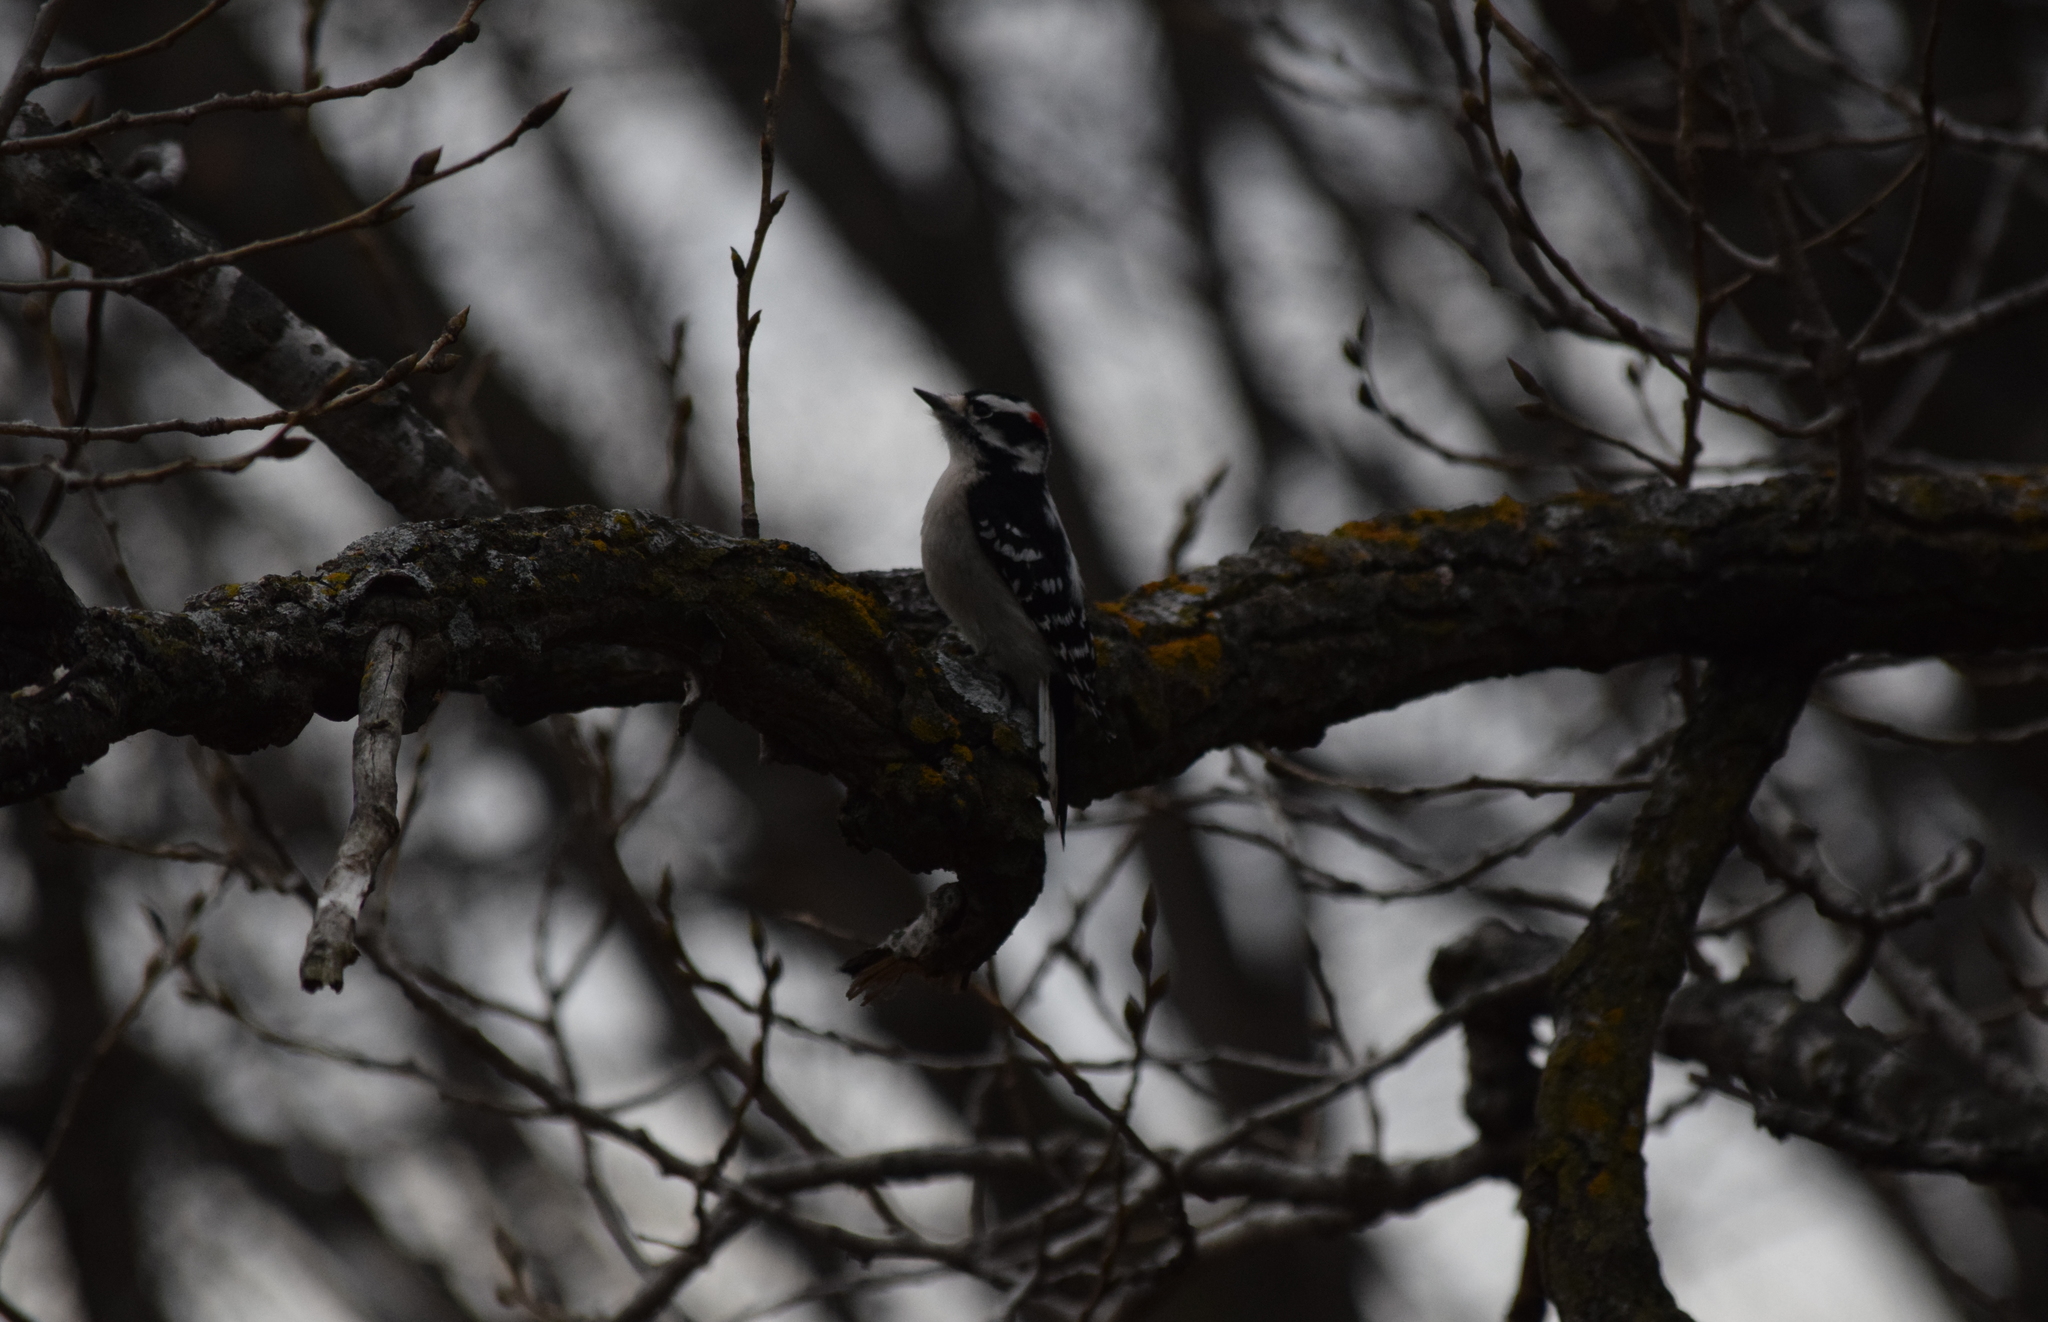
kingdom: Animalia
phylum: Chordata
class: Aves
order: Piciformes
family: Picidae
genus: Dryobates
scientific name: Dryobates pubescens
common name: Downy woodpecker
